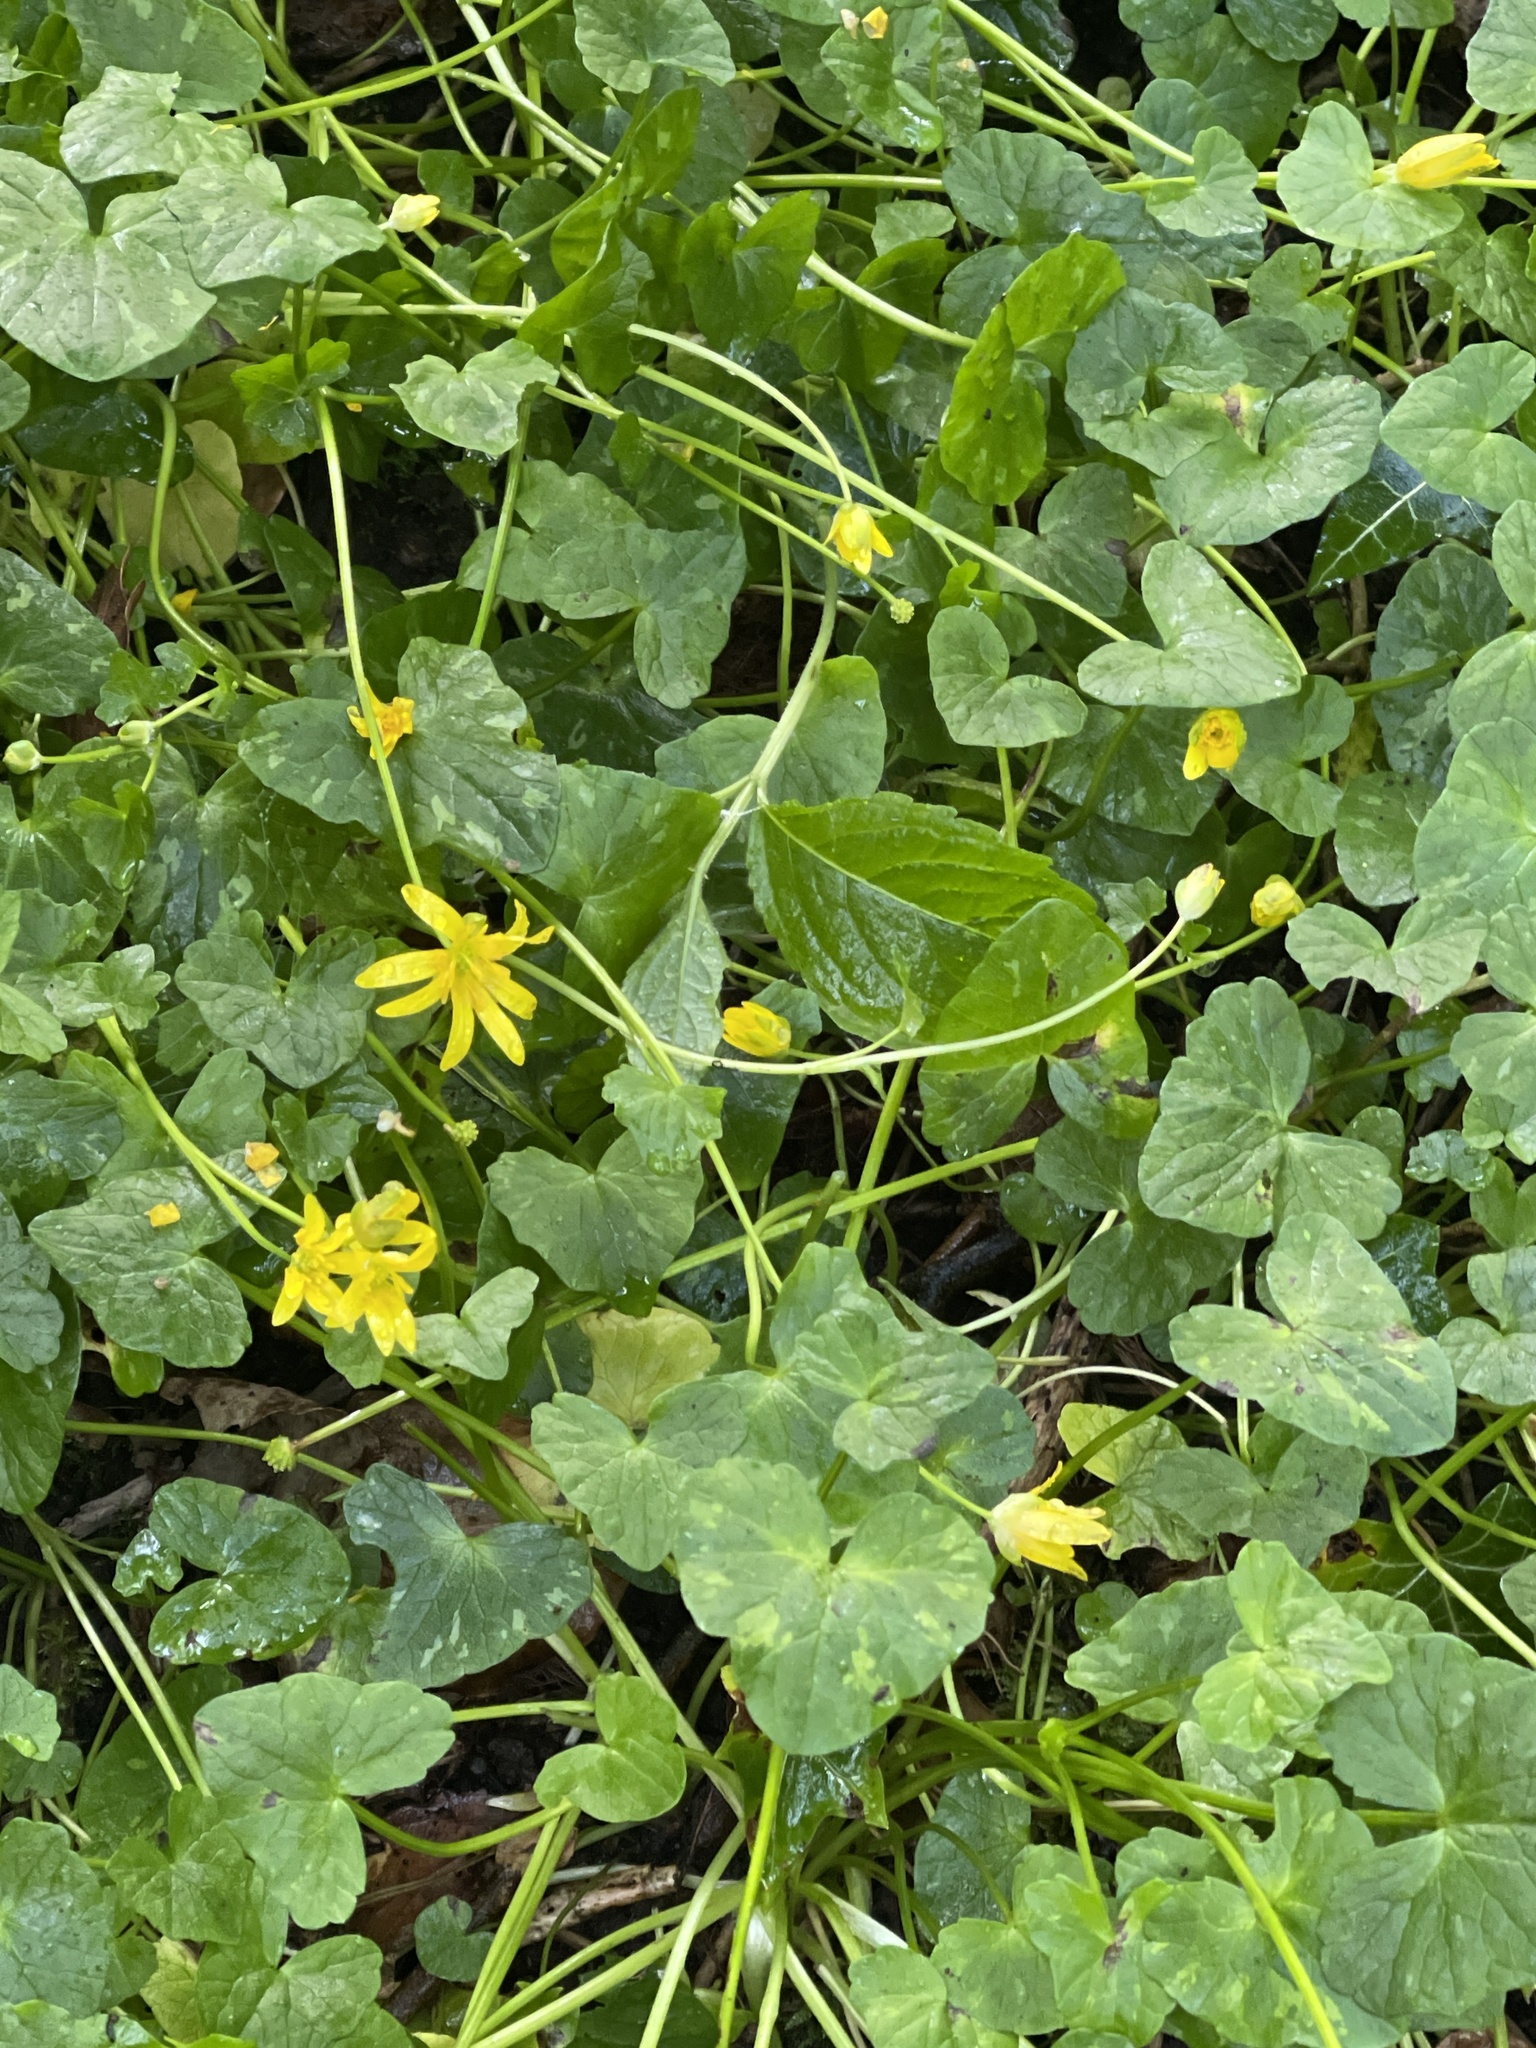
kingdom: Plantae
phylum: Tracheophyta
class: Magnoliopsida
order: Ranunculales
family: Ranunculaceae
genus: Ficaria
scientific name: Ficaria verna
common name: Lesser celandine
